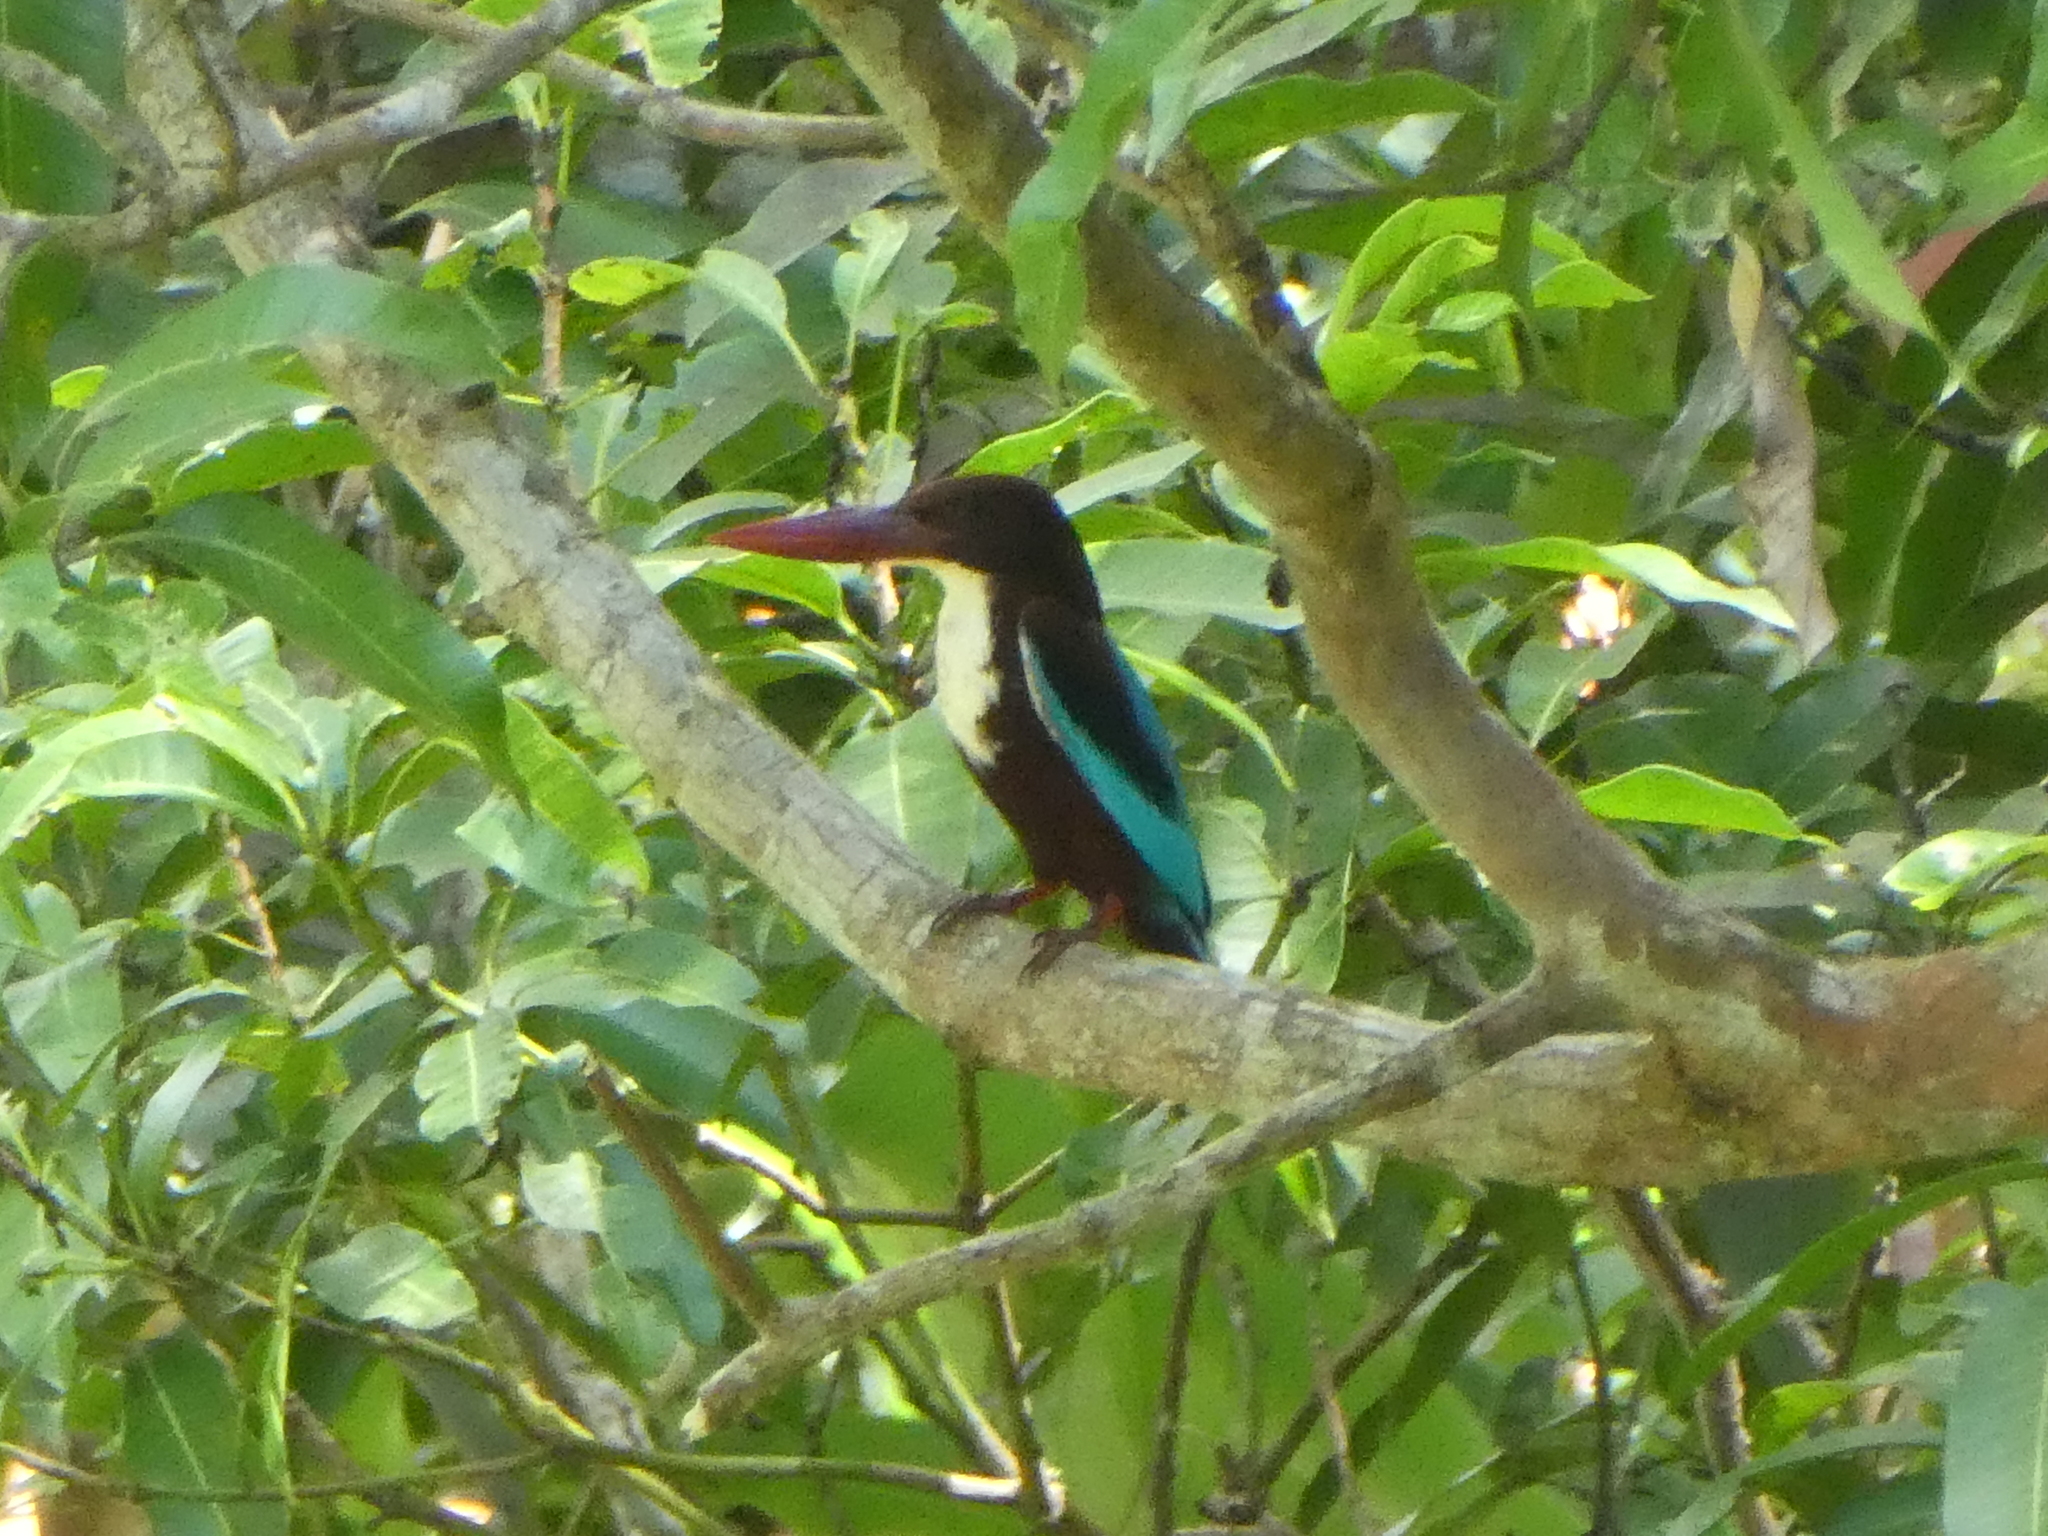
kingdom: Animalia
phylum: Chordata
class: Aves
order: Coraciiformes
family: Alcedinidae
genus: Halcyon
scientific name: Halcyon smyrnensis
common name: White-throated kingfisher
